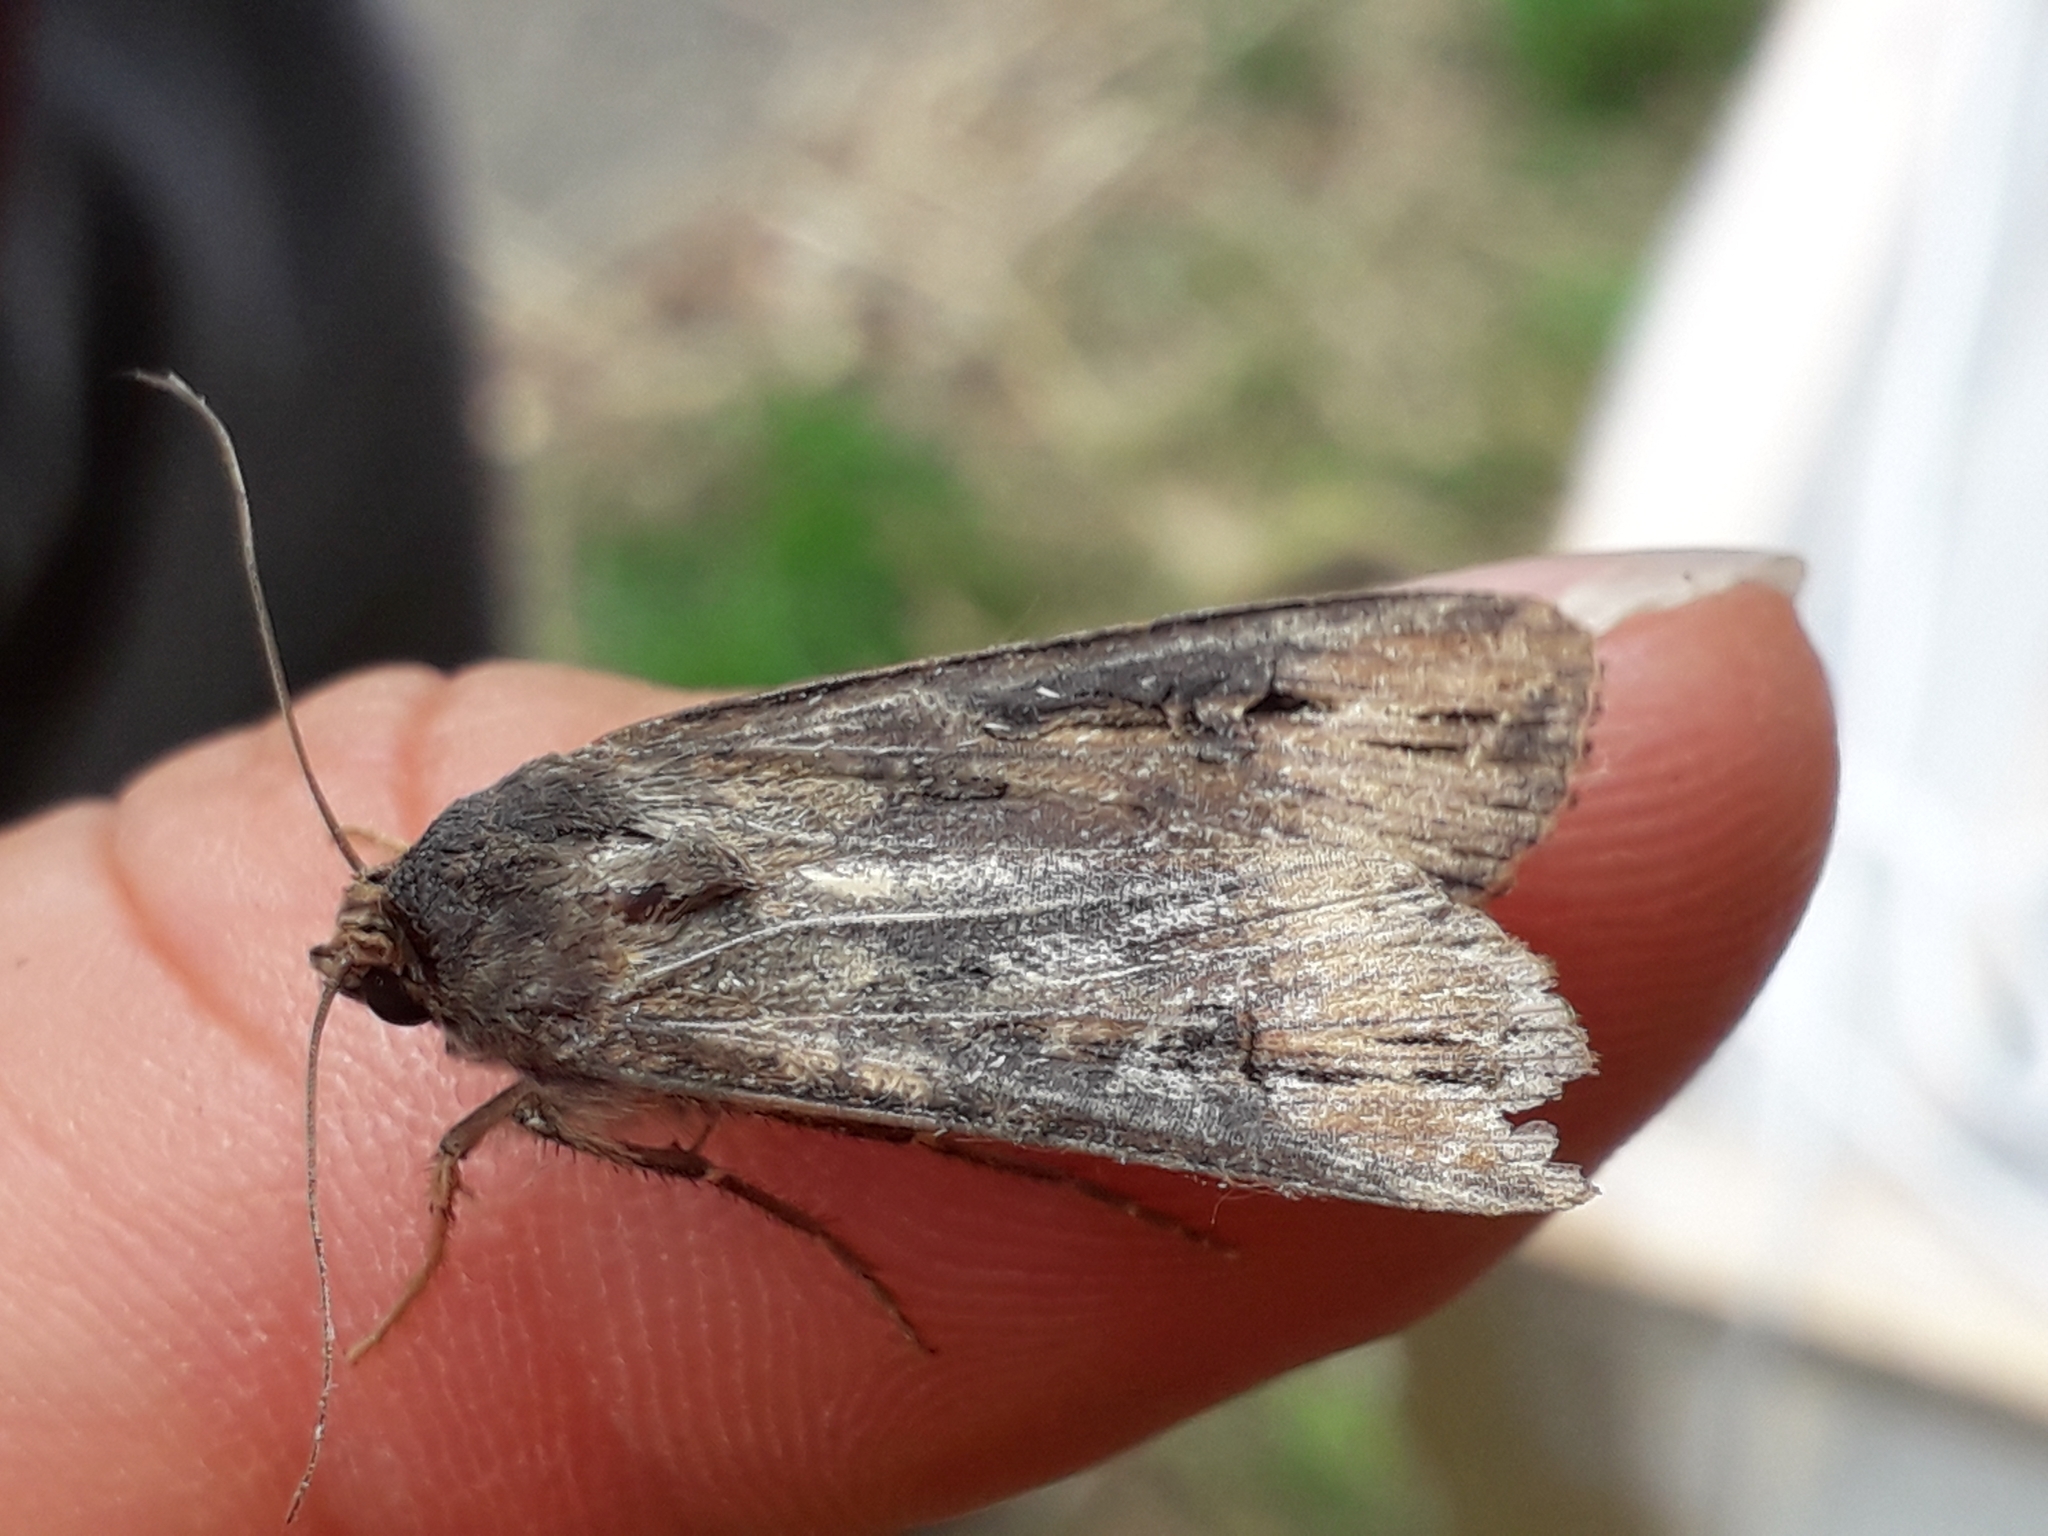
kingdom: Animalia
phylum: Arthropoda
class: Insecta
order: Lepidoptera
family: Noctuidae
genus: Agrotis
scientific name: Agrotis ipsilon
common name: Dark sword-grass
